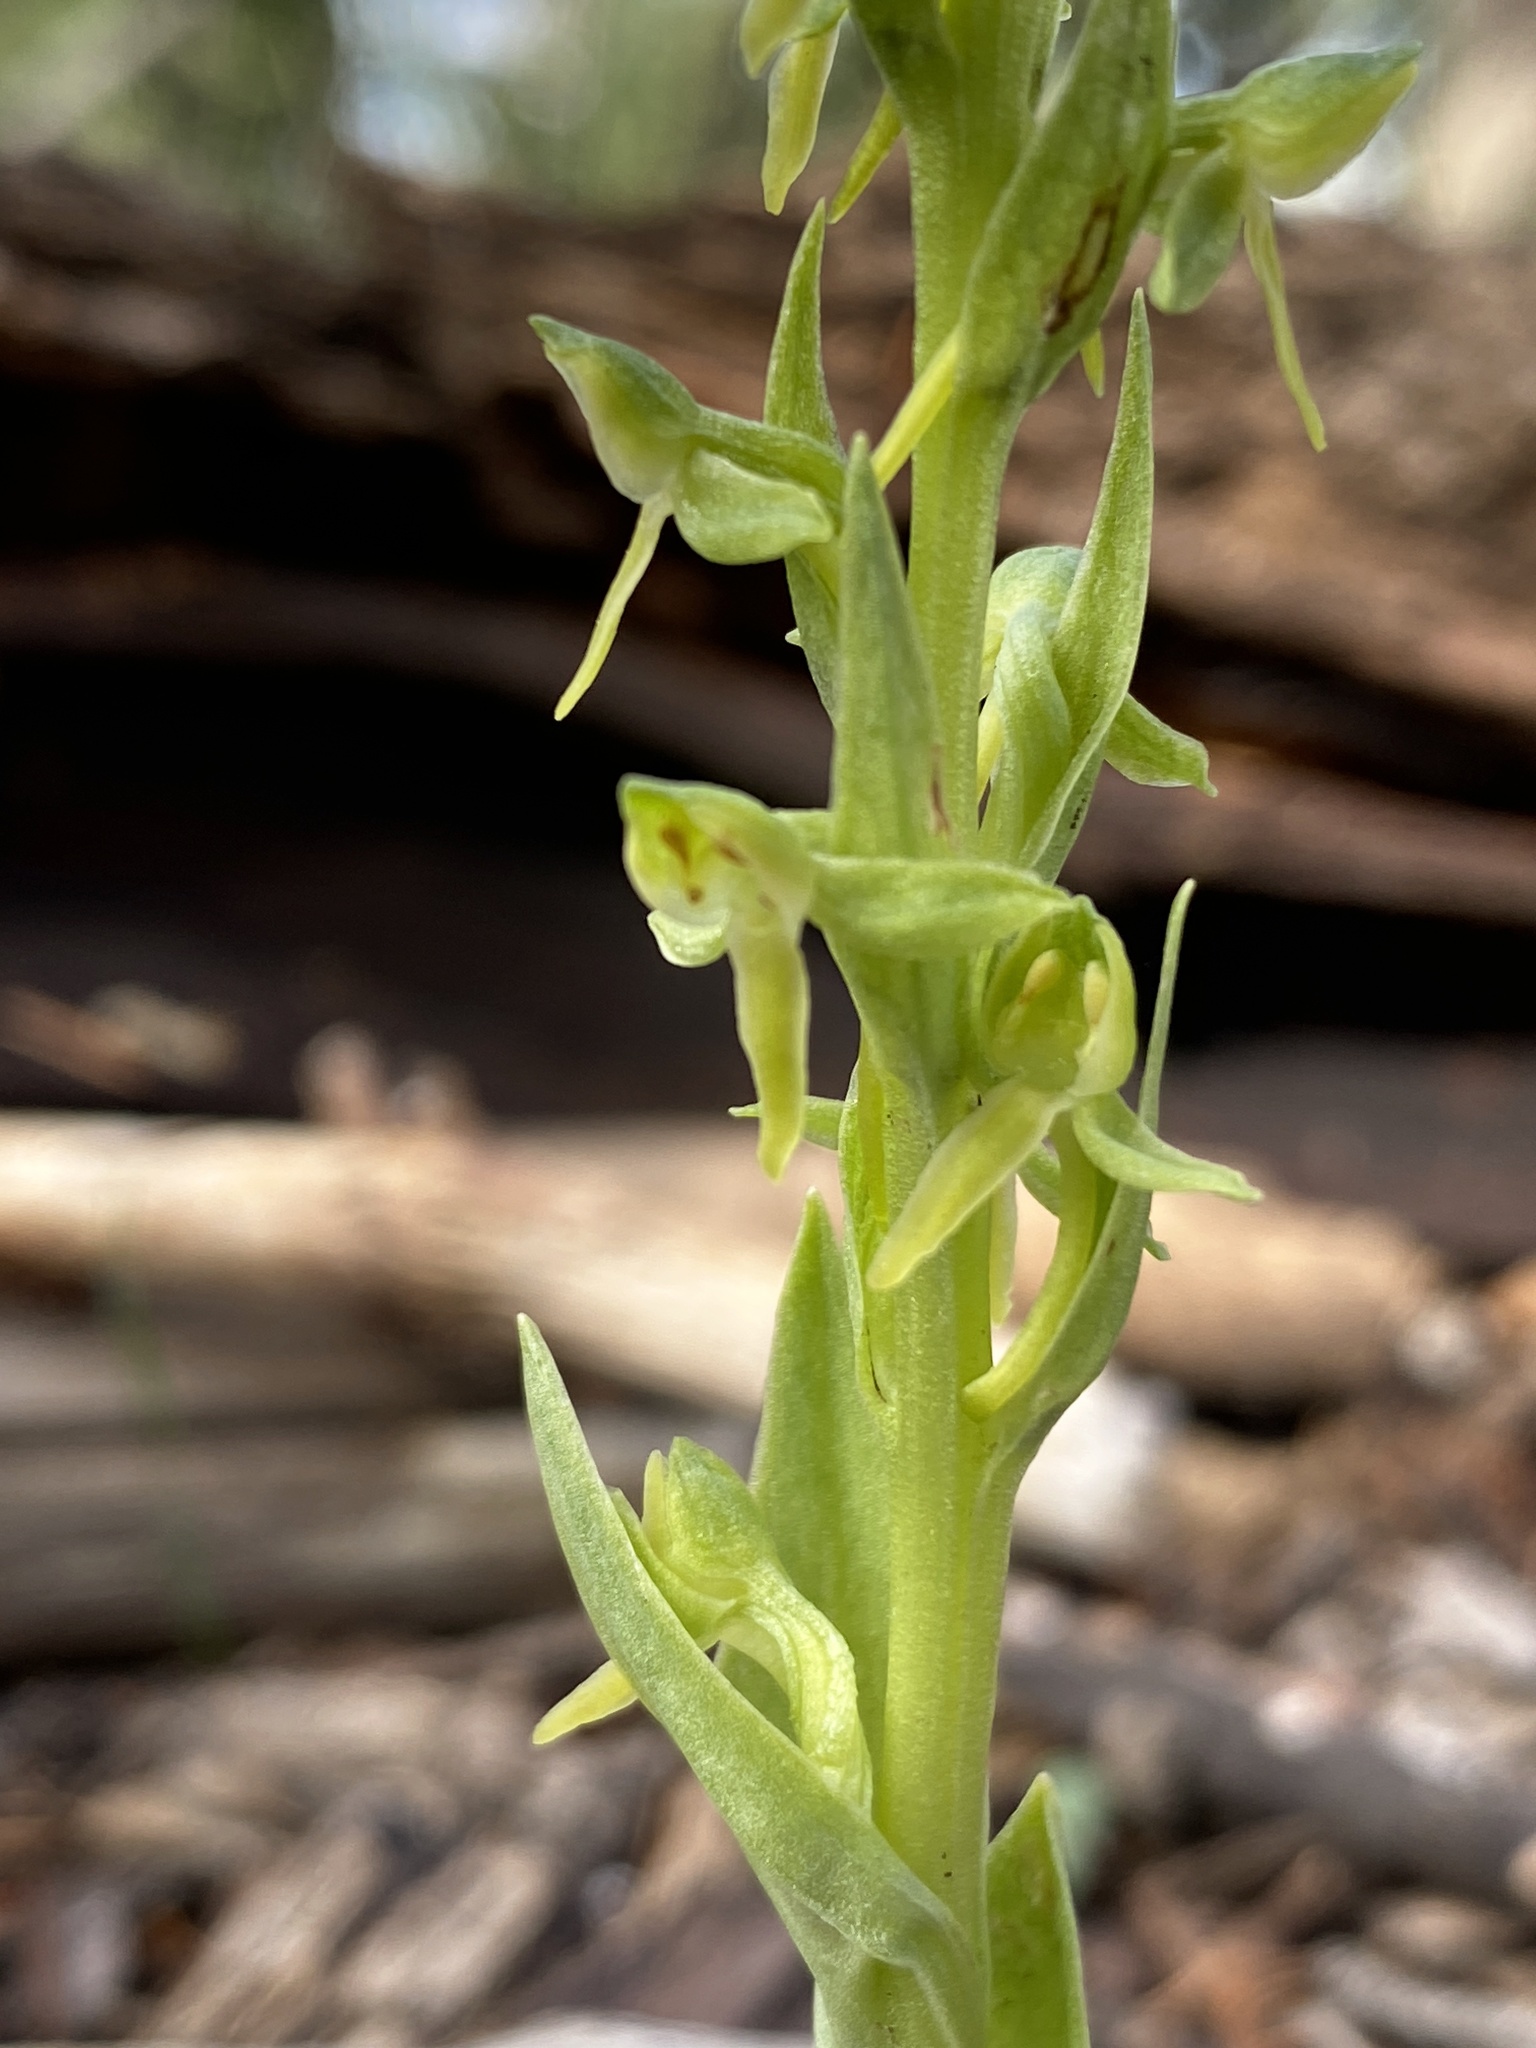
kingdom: Plantae
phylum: Tracheophyta
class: Liliopsida
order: Asparagales
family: Orchidaceae
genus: Platanthera
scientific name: Platanthera brevifolia
